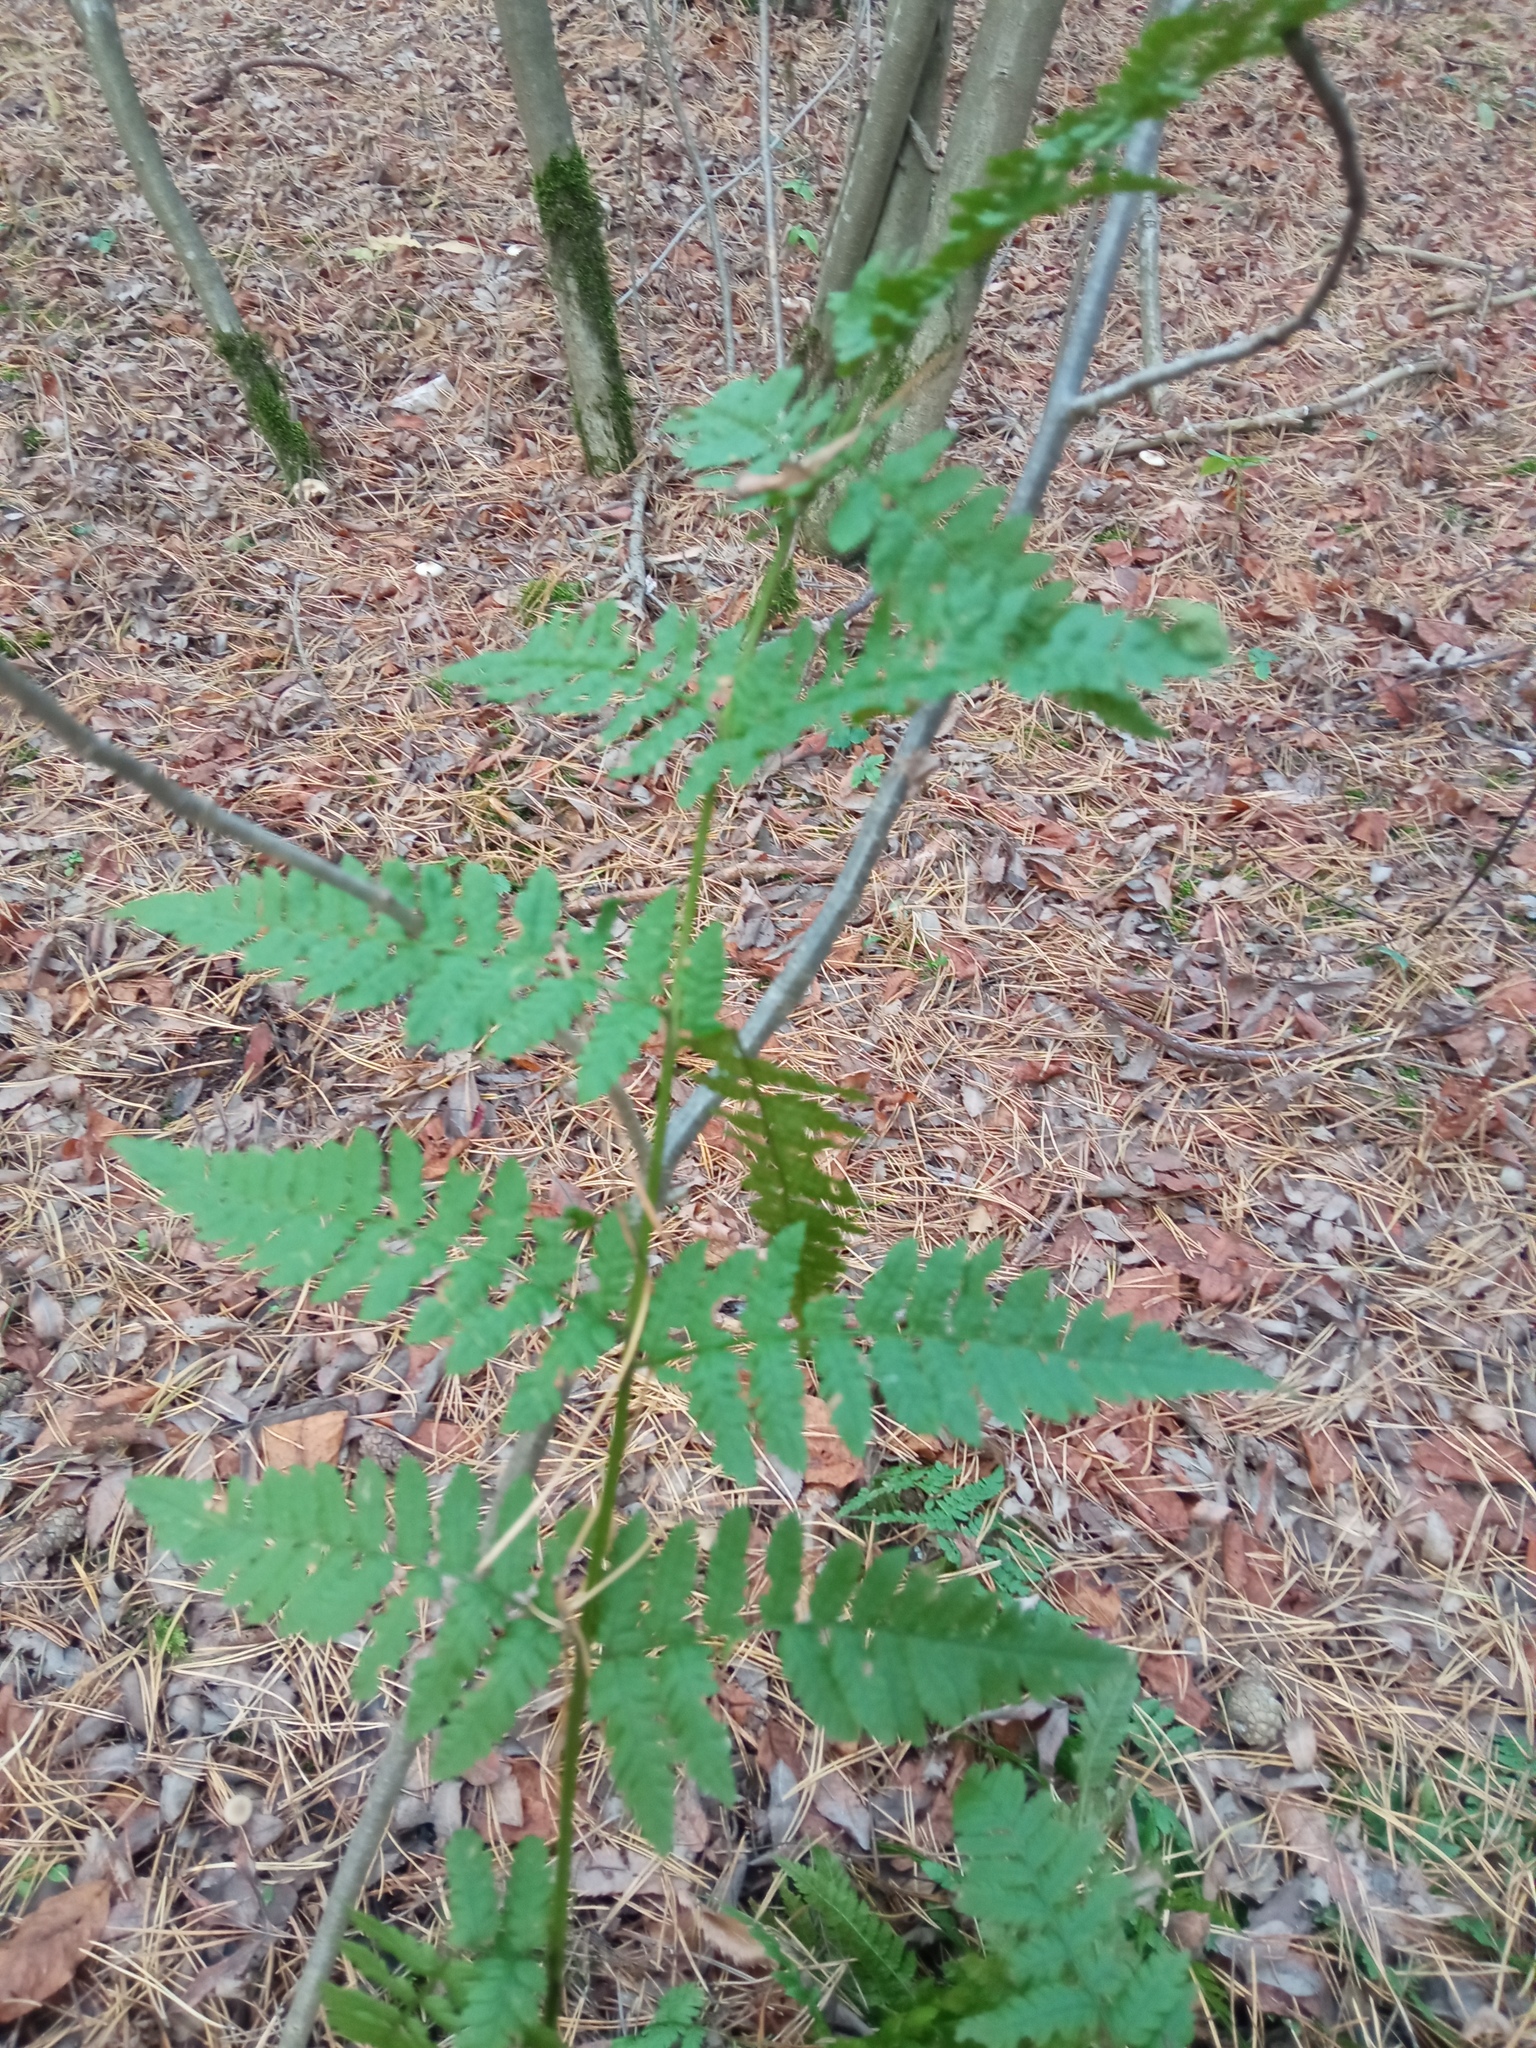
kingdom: Plantae
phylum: Tracheophyta
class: Polypodiopsida
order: Polypodiales
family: Dryopteridaceae
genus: Dryopteris
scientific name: Dryopteris carthusiana
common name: Narrow buckler-fern
